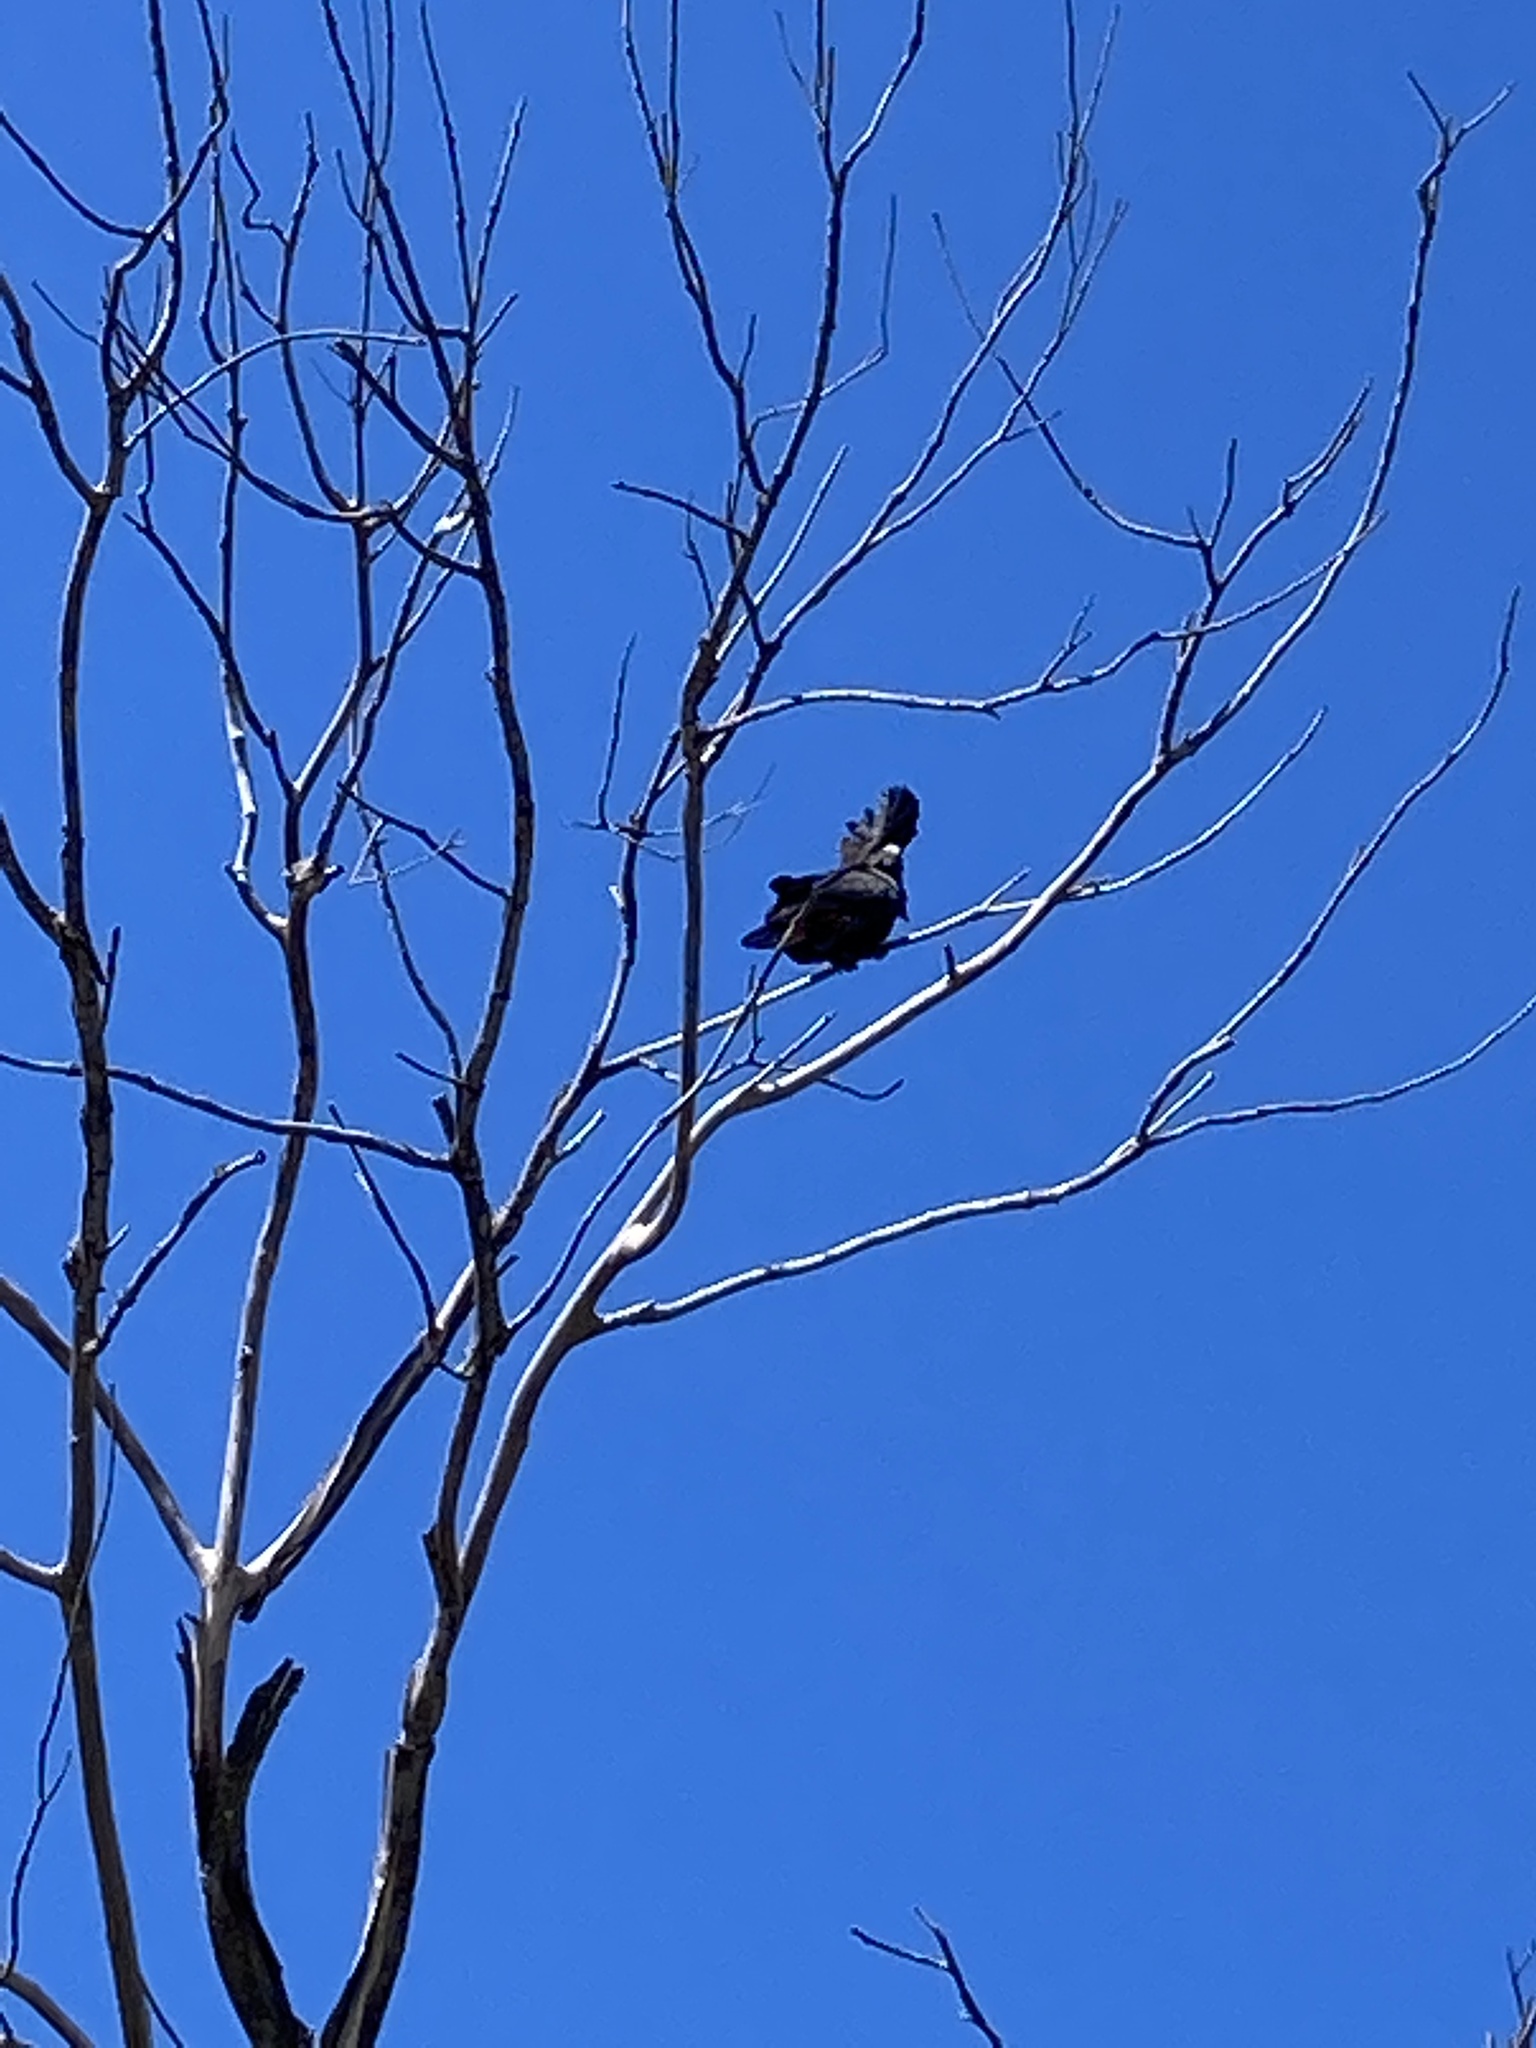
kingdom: Animalia
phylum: Chordata
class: Aves
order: Psittaciformes
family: Psittacidae
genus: Calyptorhynchus
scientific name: Calyptorhynchus banksii
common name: Red-tailed black cockatoo
